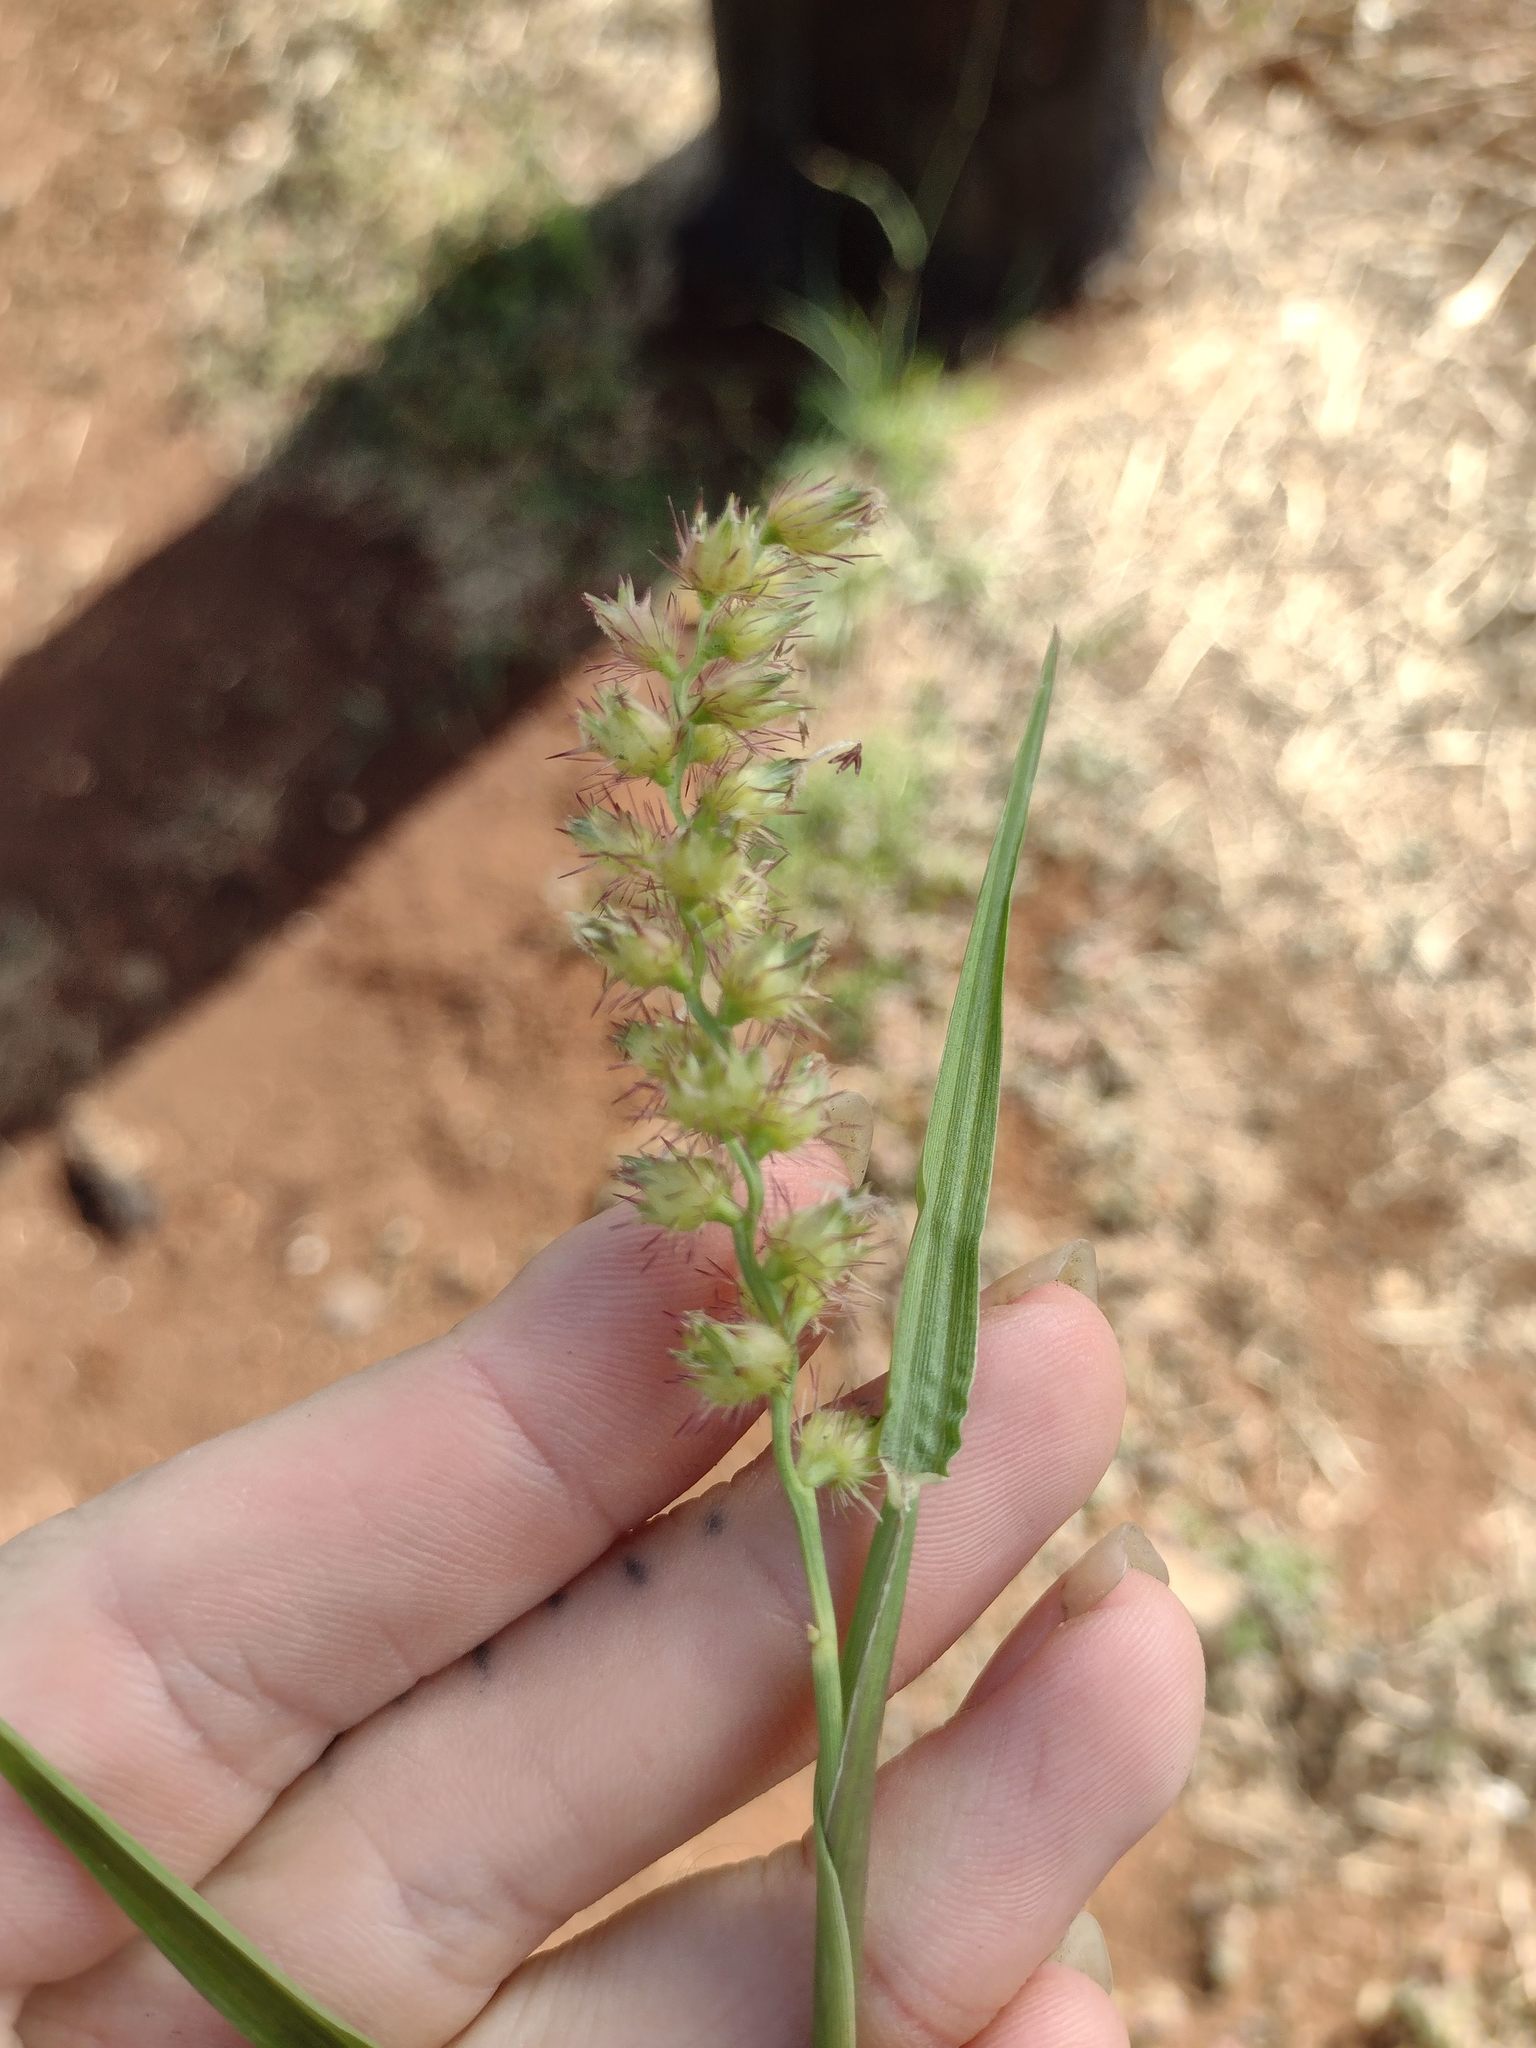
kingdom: Plantae
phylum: Tracheophyta
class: Liliopsida
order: Poales
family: Poaceae
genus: Cenchrus
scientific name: Cenchrus echinatus
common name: Southern sandbur
